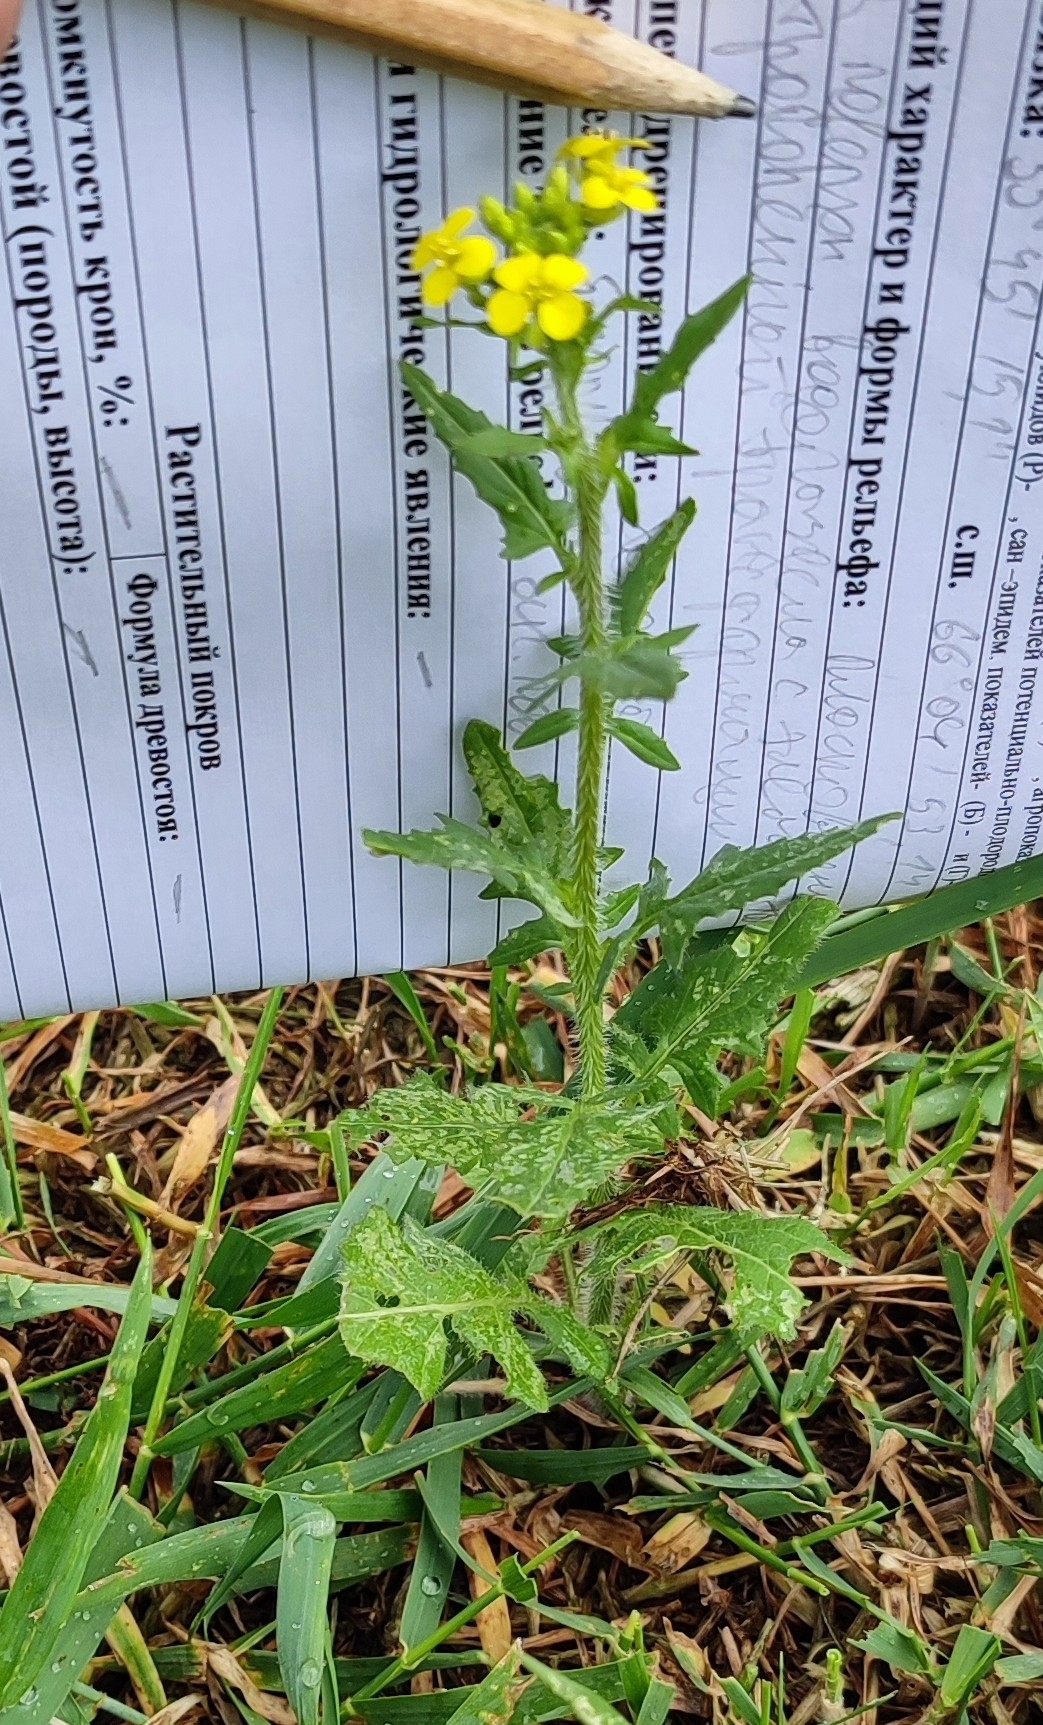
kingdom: Plantae
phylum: Tracheophyta
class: Magnoliopsida
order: Brassicales
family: Brassicaceae
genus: Sisymbrium
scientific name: Sisymbrium loeselii
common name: False london-rocket
